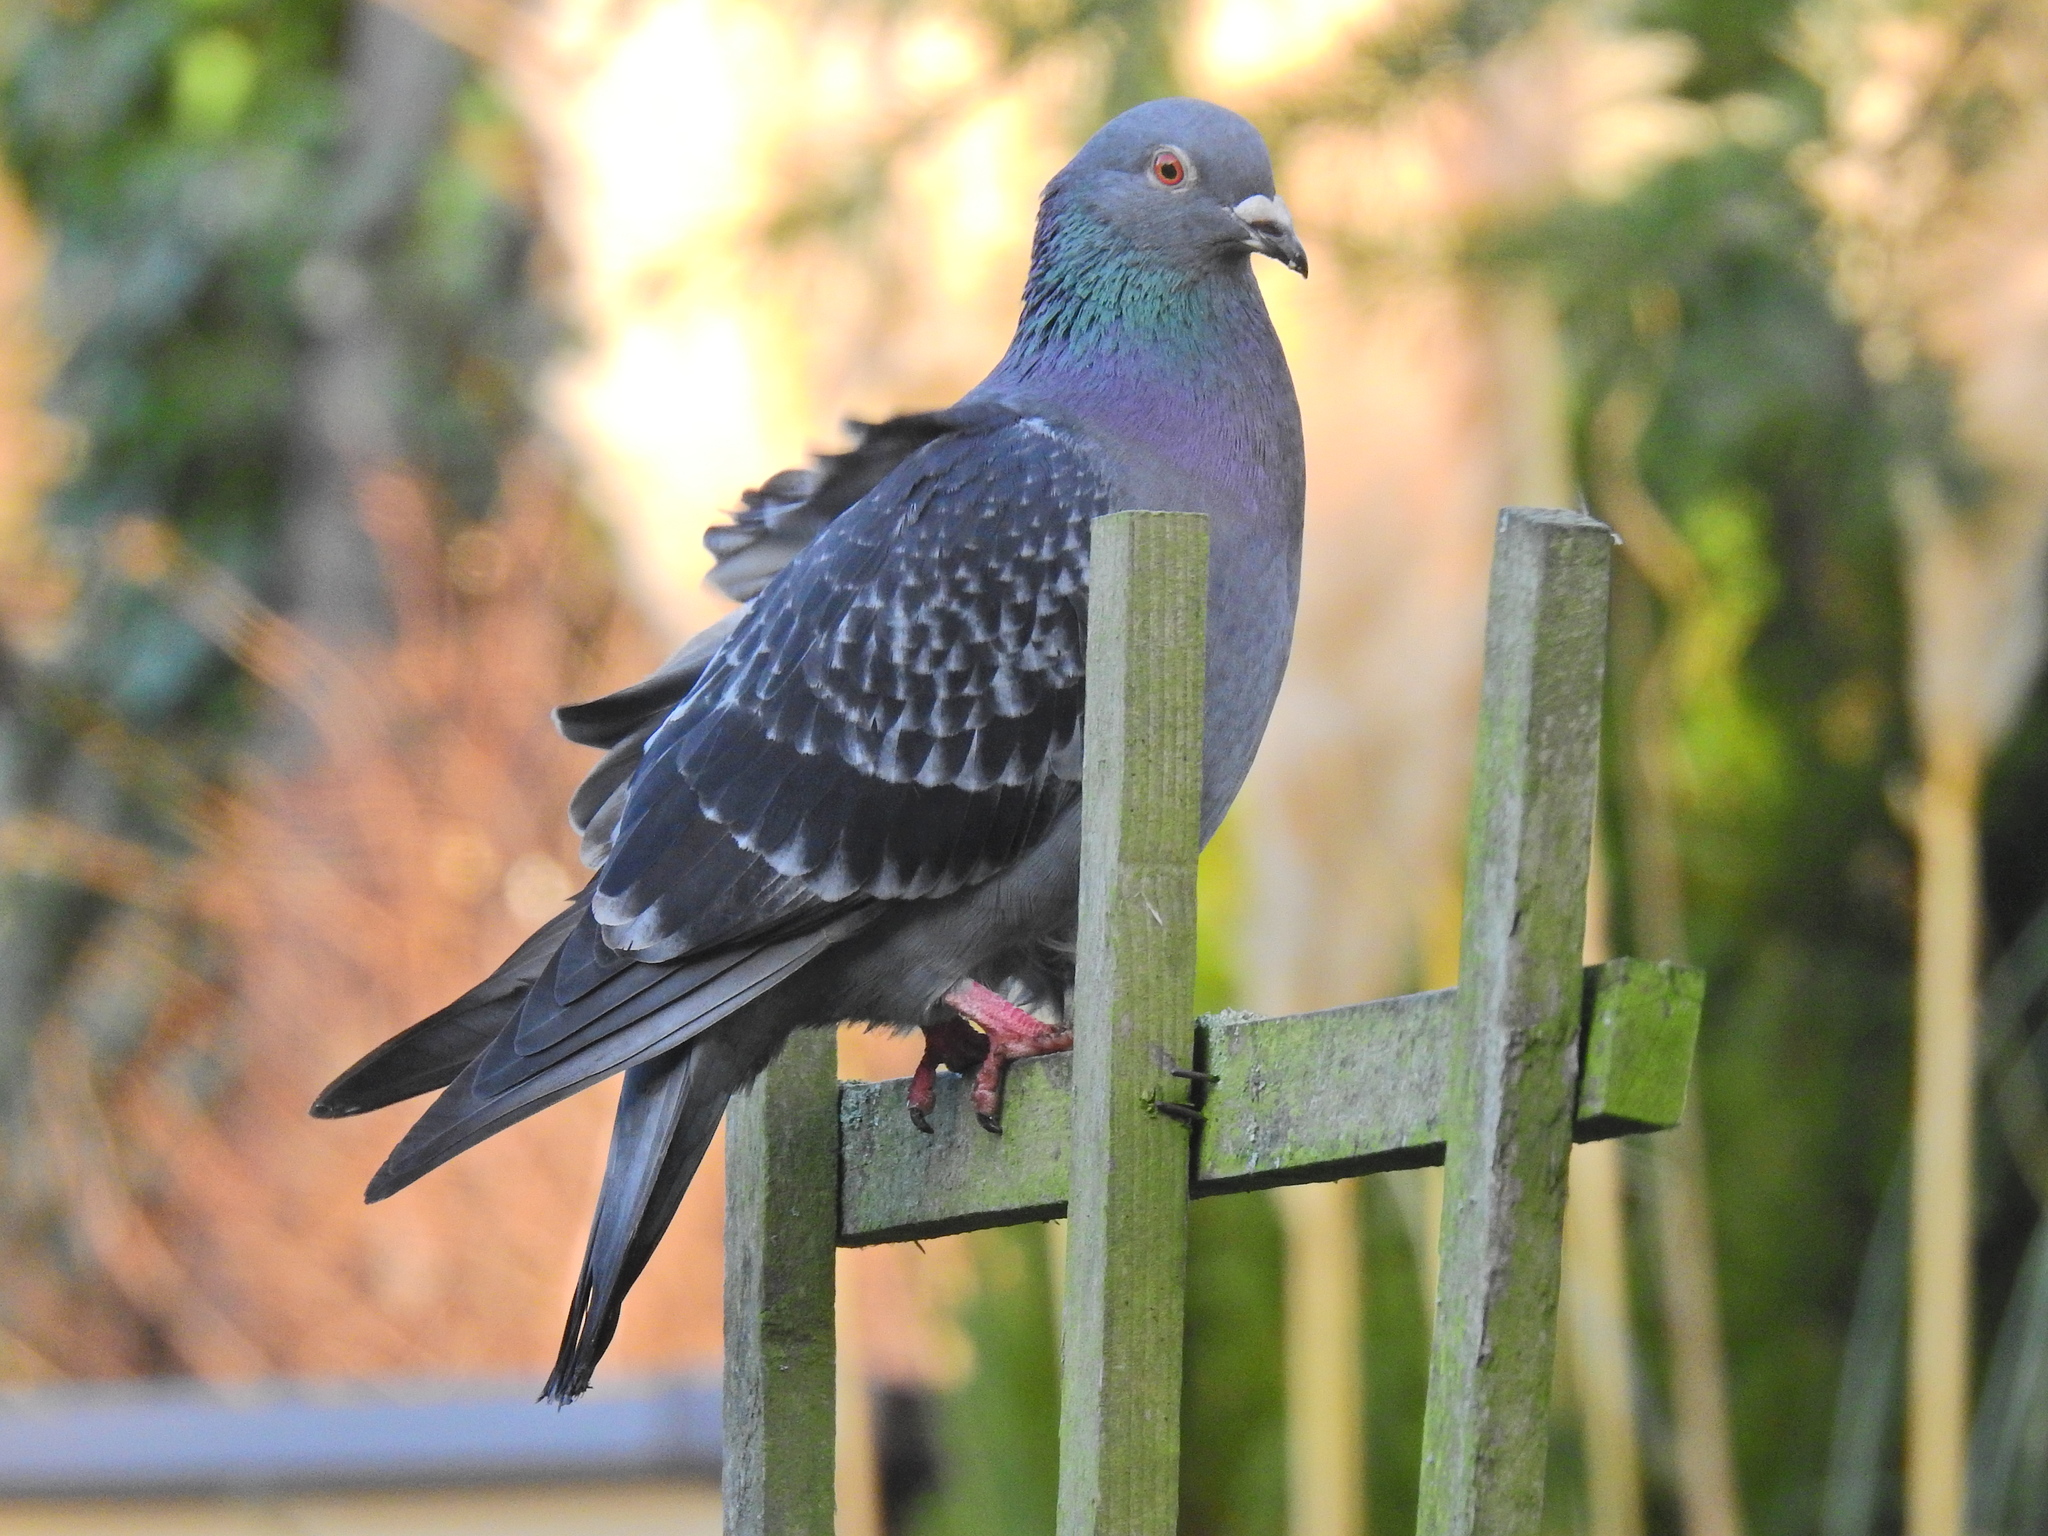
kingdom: Animalia
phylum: Chordata
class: Aves
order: Columbiformes
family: Columbidae
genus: Columba
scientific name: Columba livia
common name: Rock pigeon
